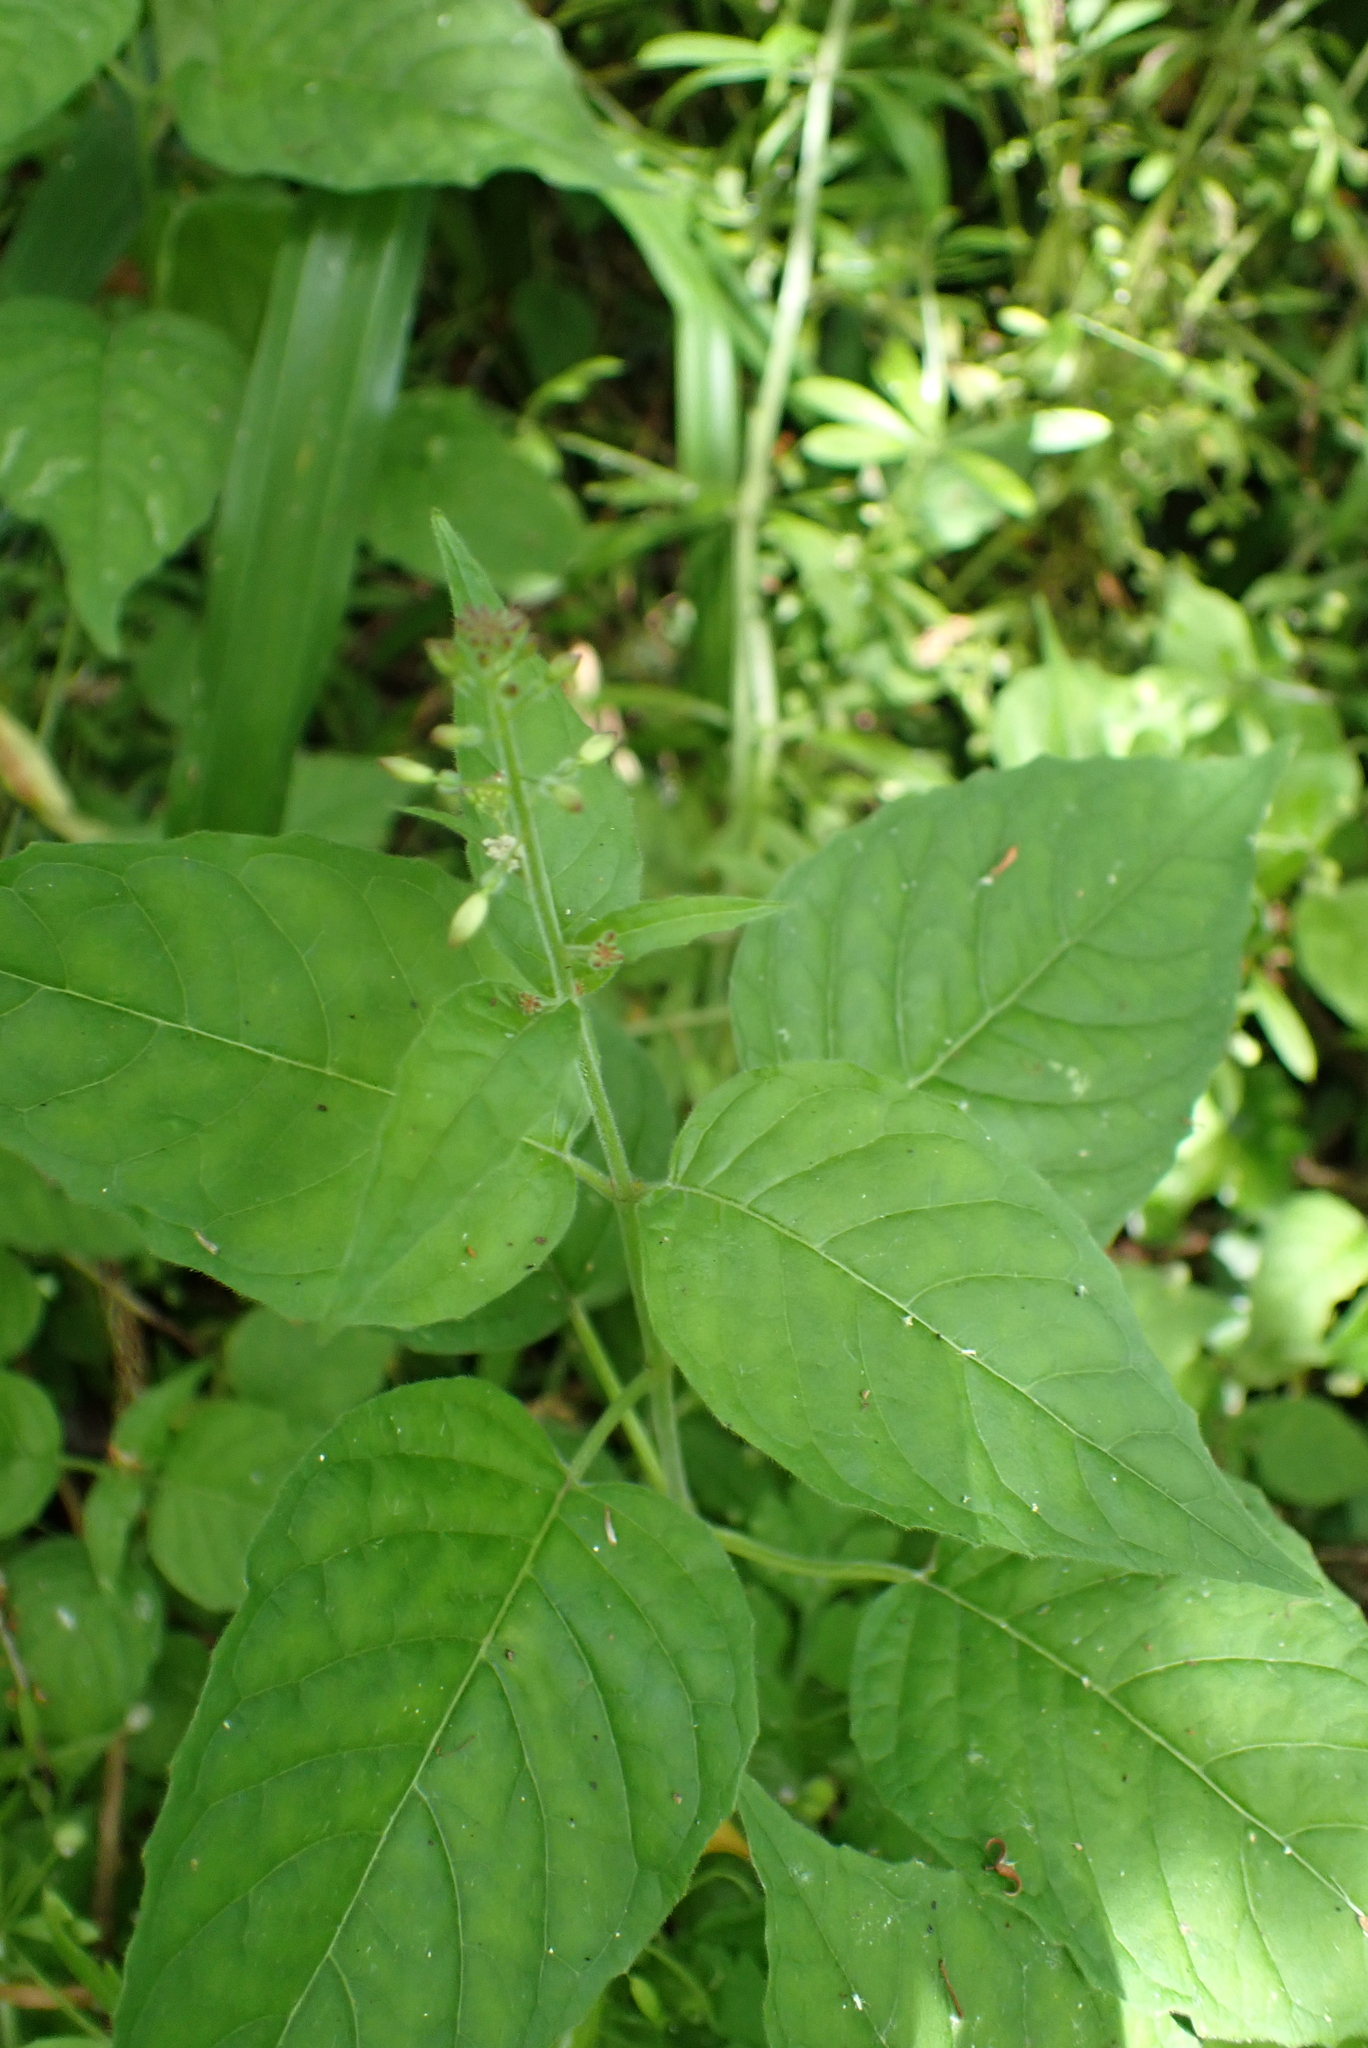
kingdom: Plantae
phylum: Tracheophyta
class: Magnoliopsida
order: Myrtales
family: Onagraceae
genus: Circaea
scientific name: Circaea lutetiana
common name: Enchanter's-nightshade
